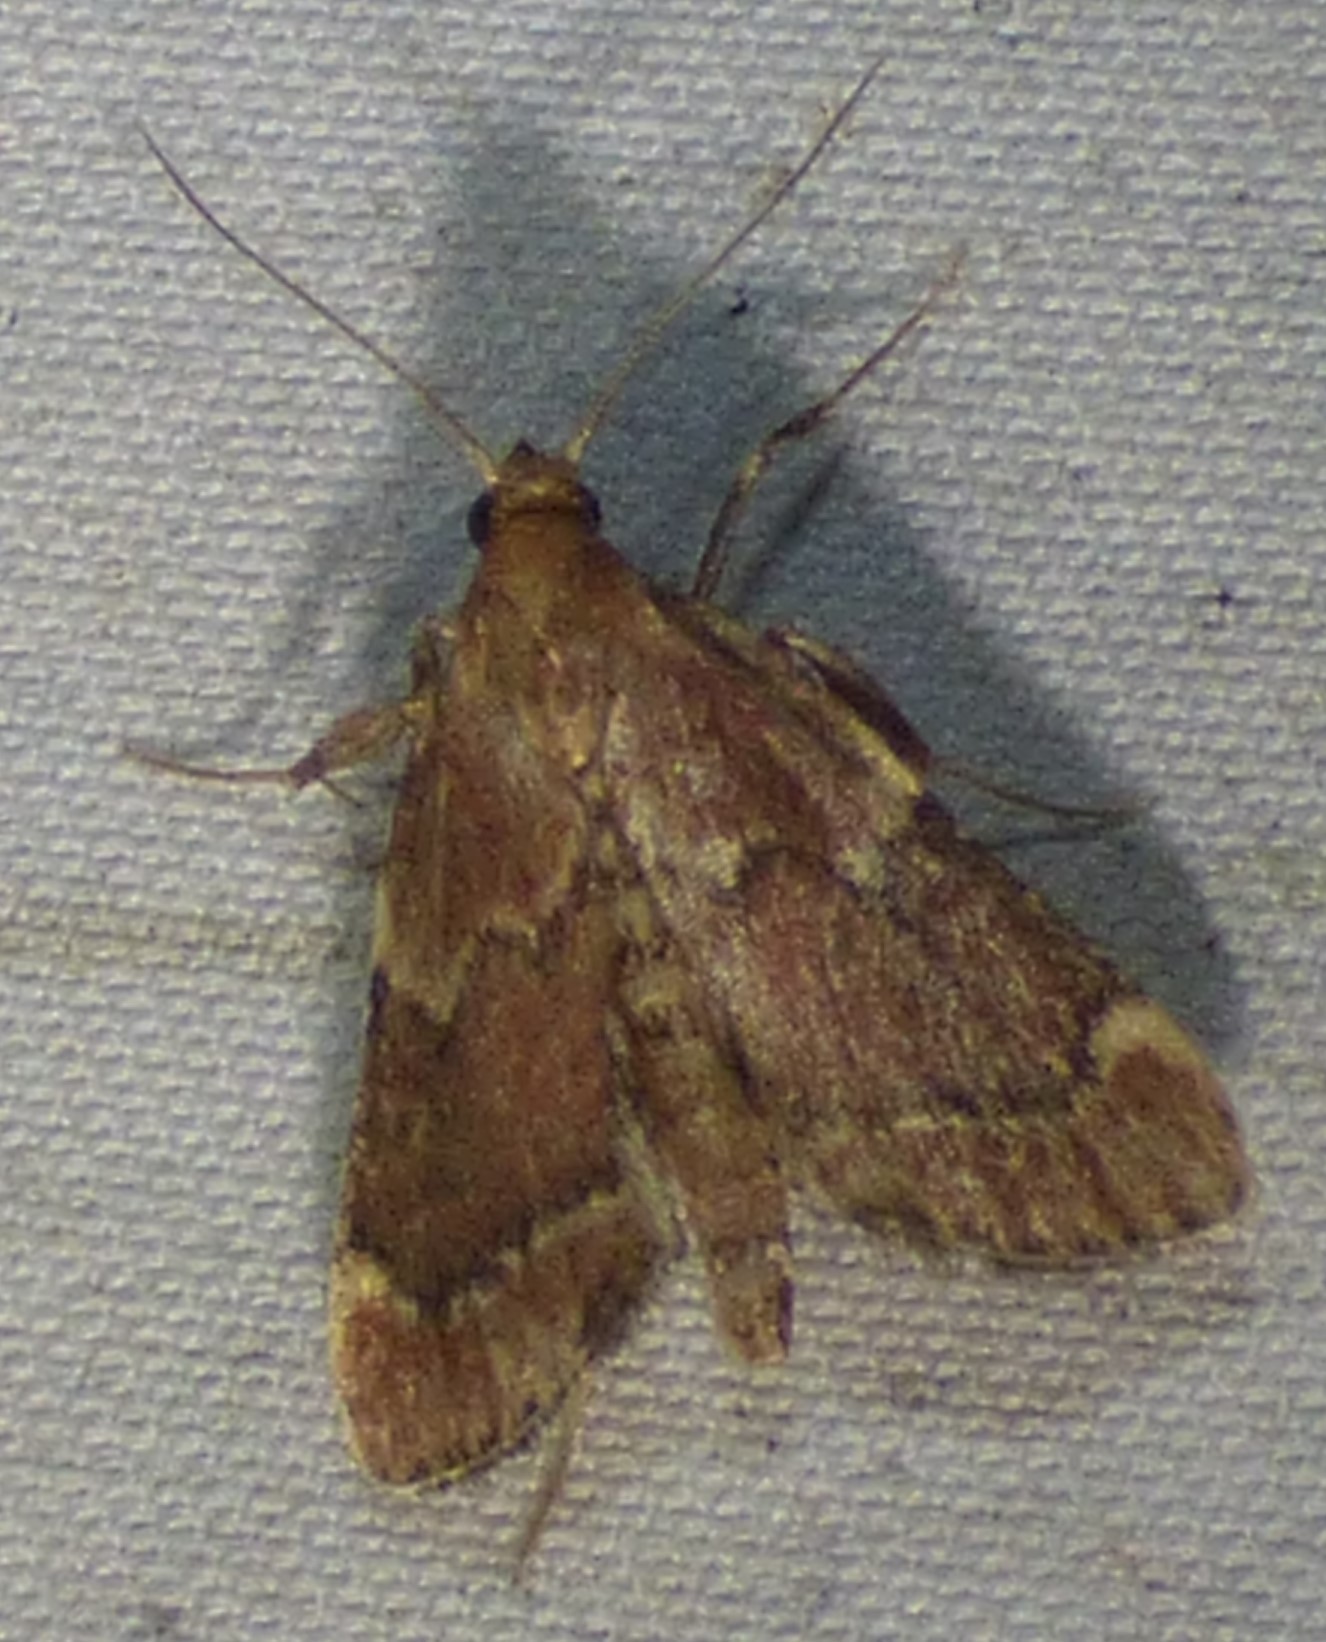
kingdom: Animalia
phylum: Arthropoda
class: Insecta
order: Lepidoptera
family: Pyralidae
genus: Hypsopygia
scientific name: Hypsopygia intermedialis
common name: Red-shawled moth
